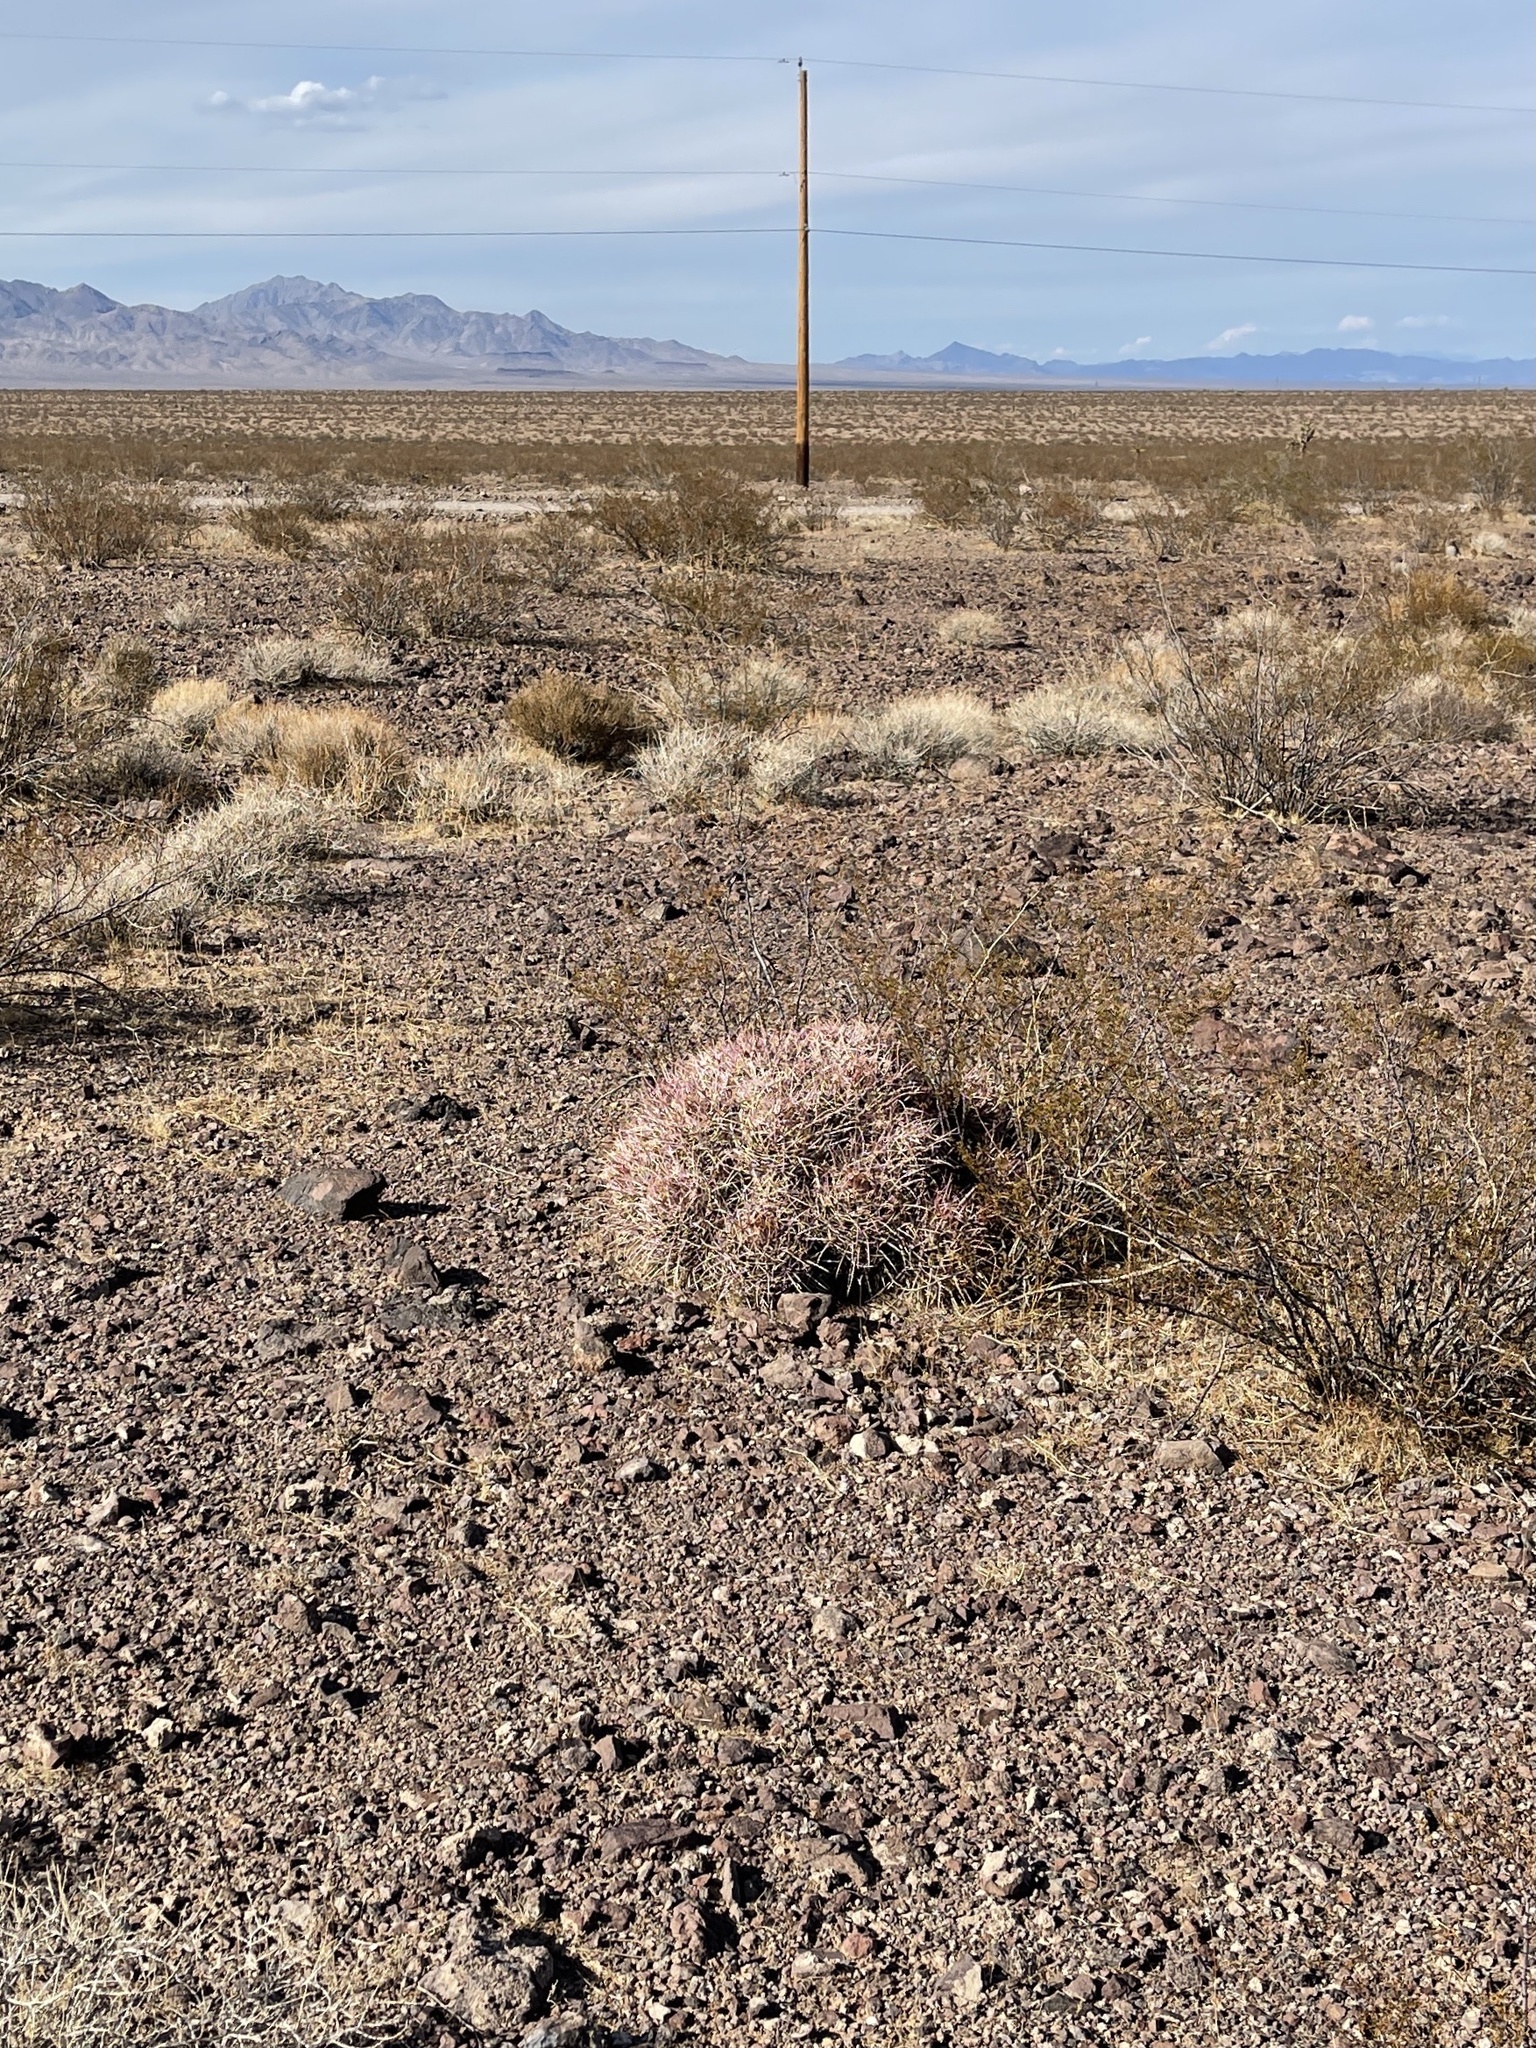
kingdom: Plantae
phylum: Tracheophyta
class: Magnoliopsida
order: Caryophyllales
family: Cactaceae
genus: Echinocactus
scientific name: Echinocactus polycephalus
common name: Cottontop cactus
